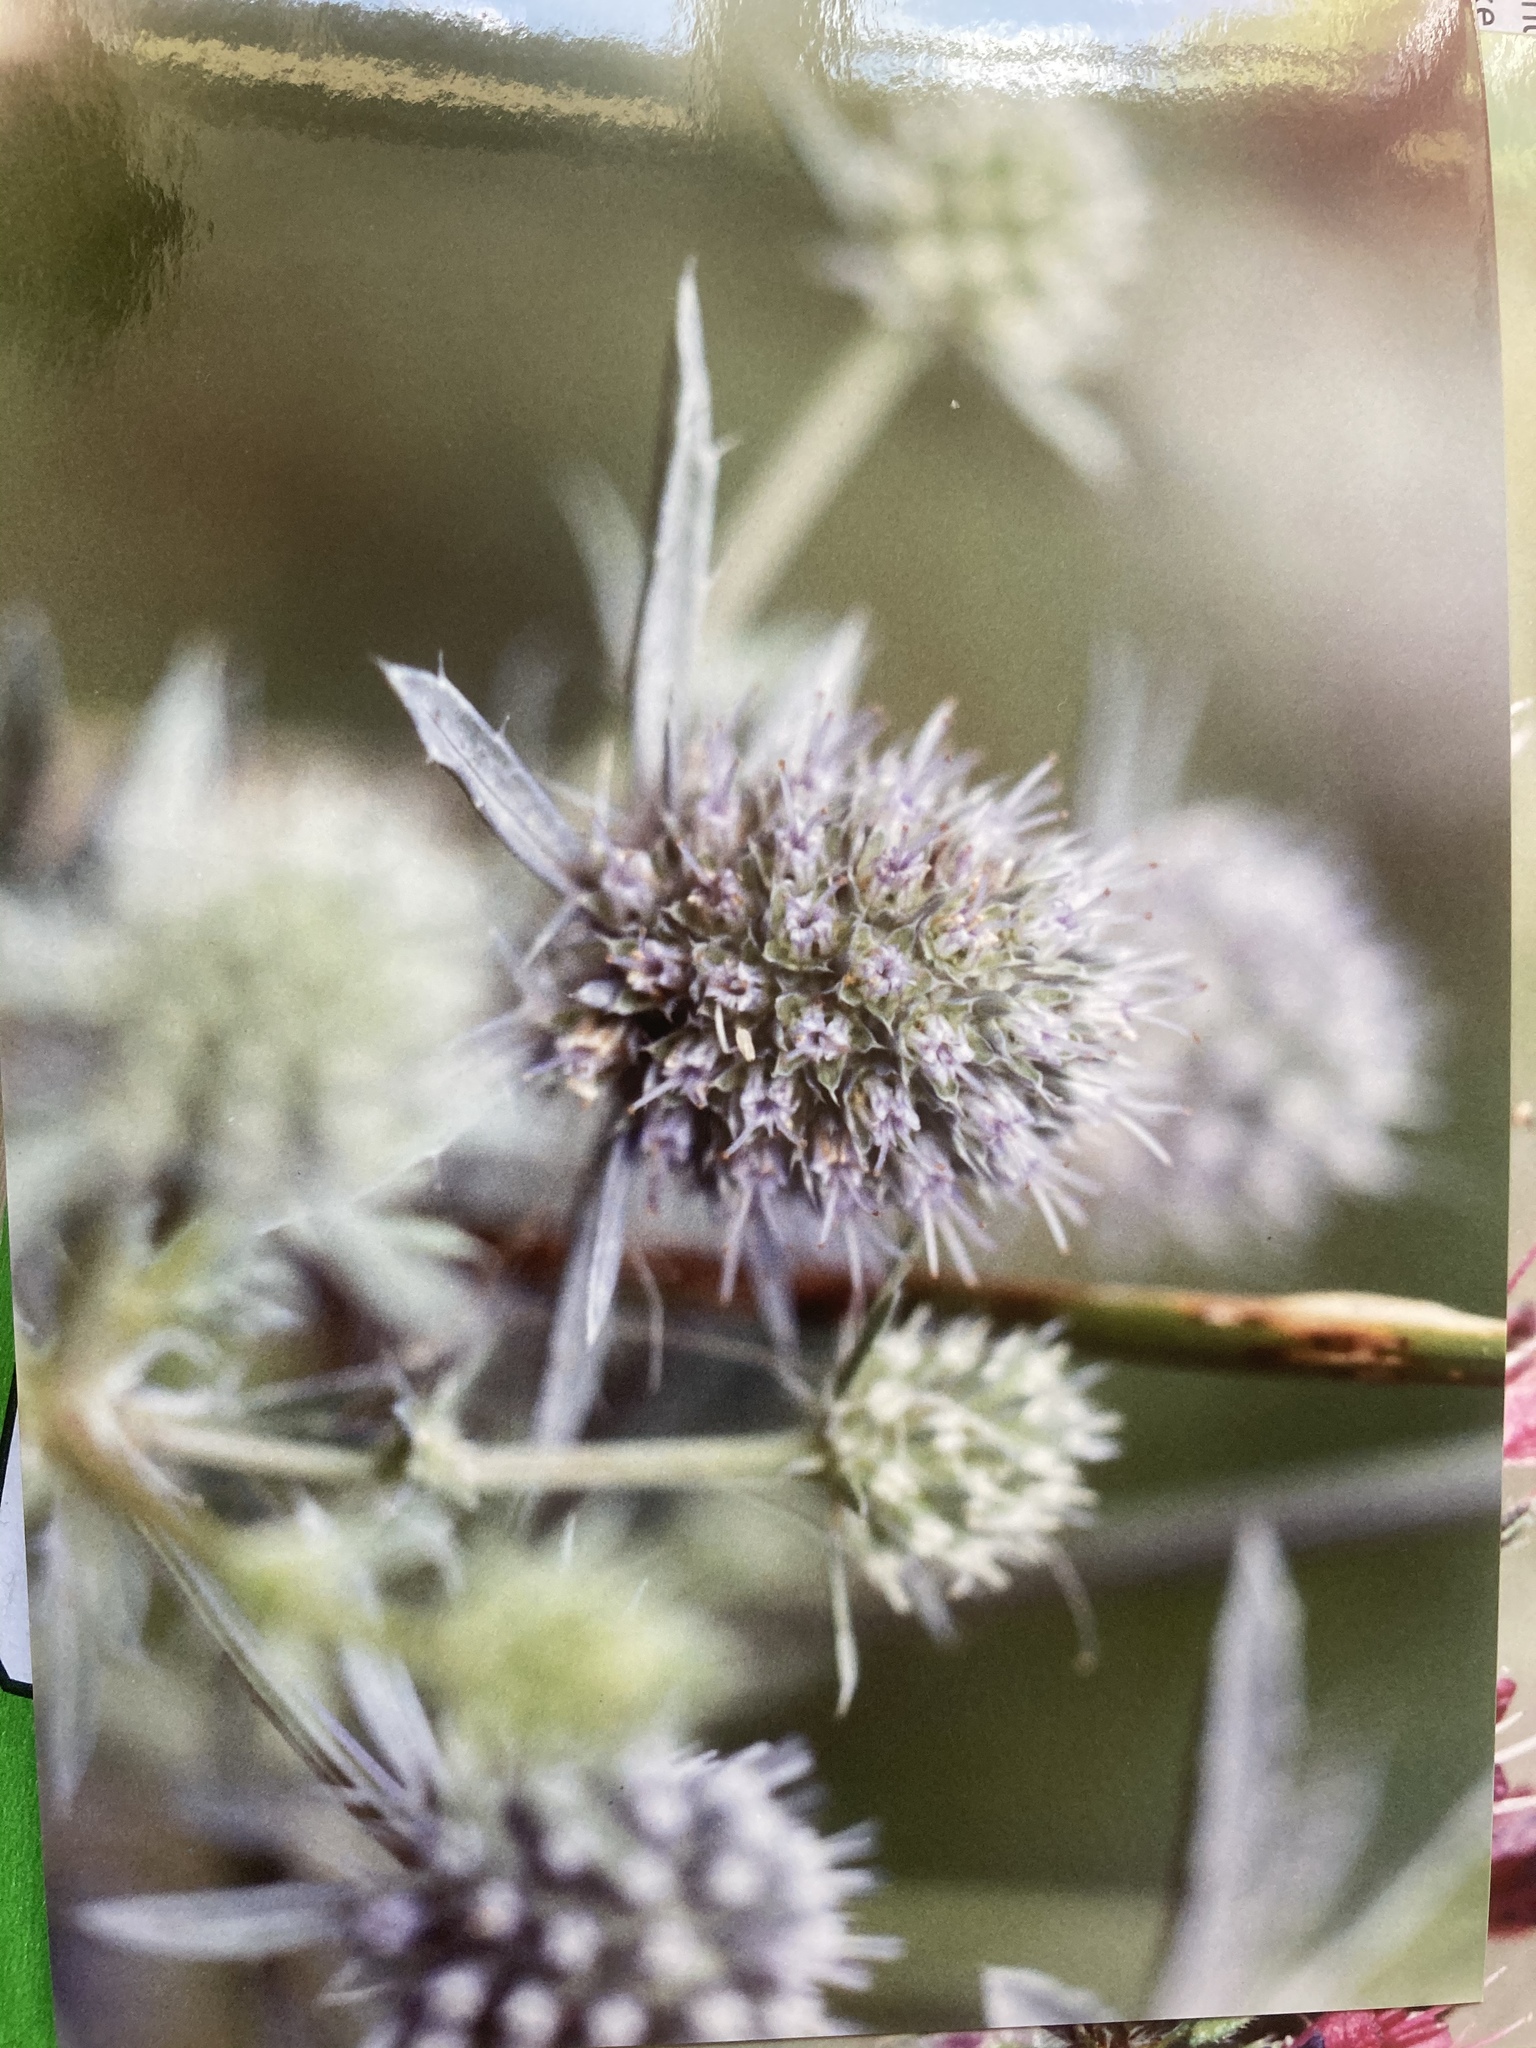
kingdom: Plantae
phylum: Tracheophyta
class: Magnoliopsida
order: Apiales
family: Apiaceae
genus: Eryngium
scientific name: Eryngium planum
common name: Blue eryngo
